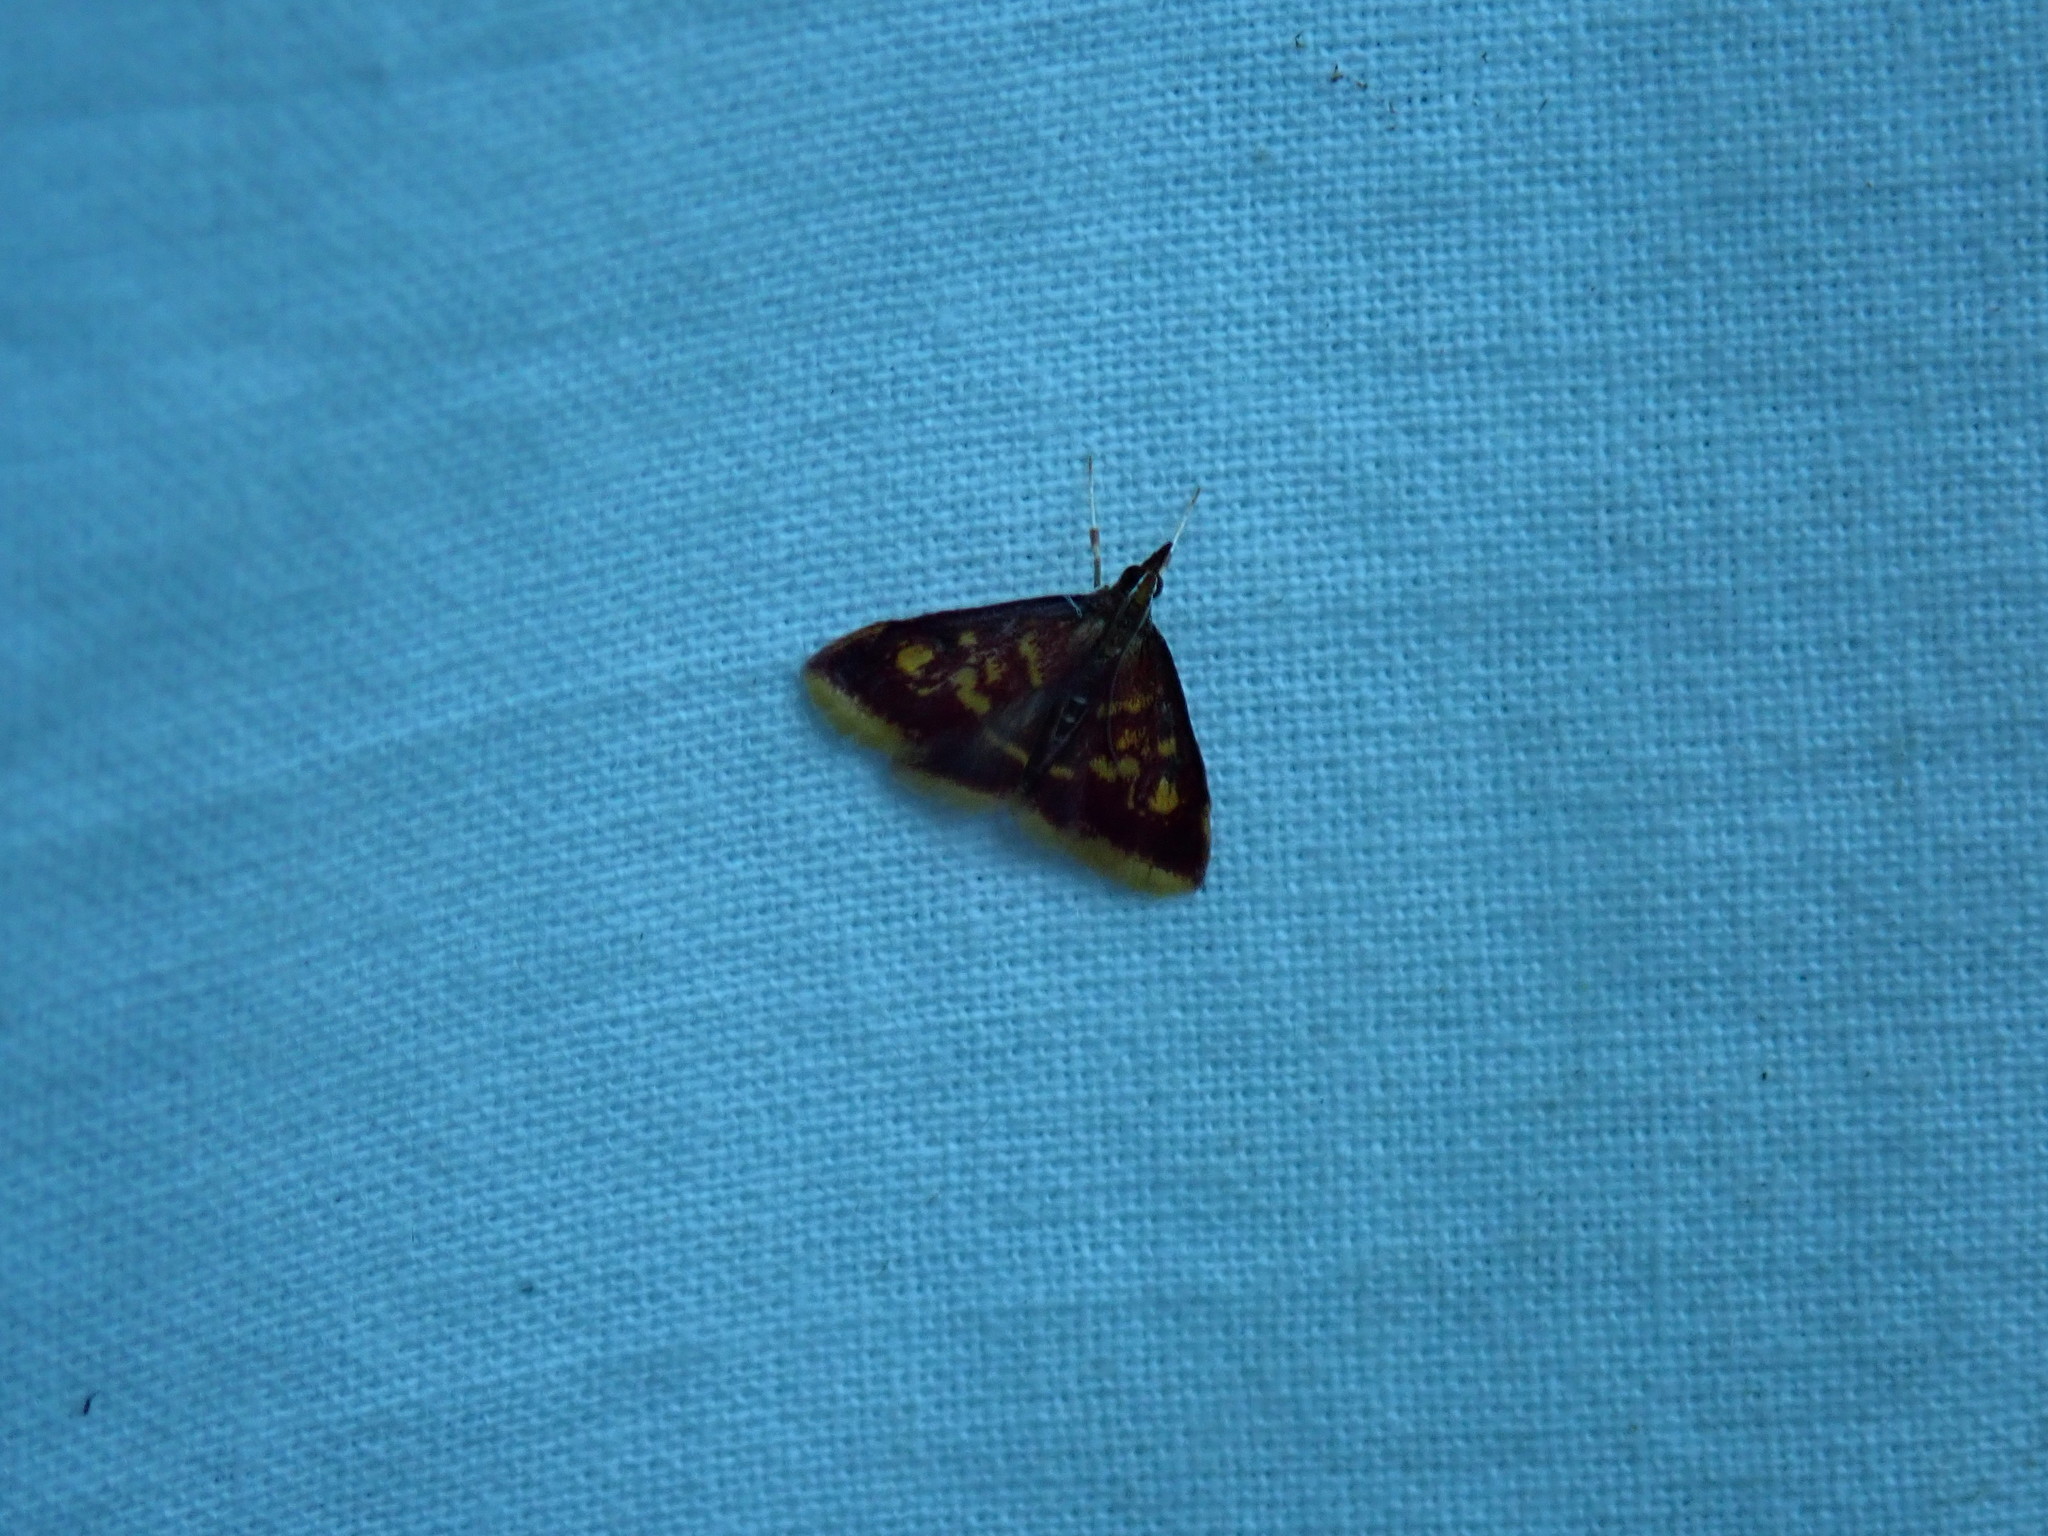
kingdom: Animalia
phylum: Arthropoda
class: Insecta
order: Lepidoptera
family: Crambidae
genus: Pyrausta
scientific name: Pyrausta acrionalis
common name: Mint-loving pyrausta moth
